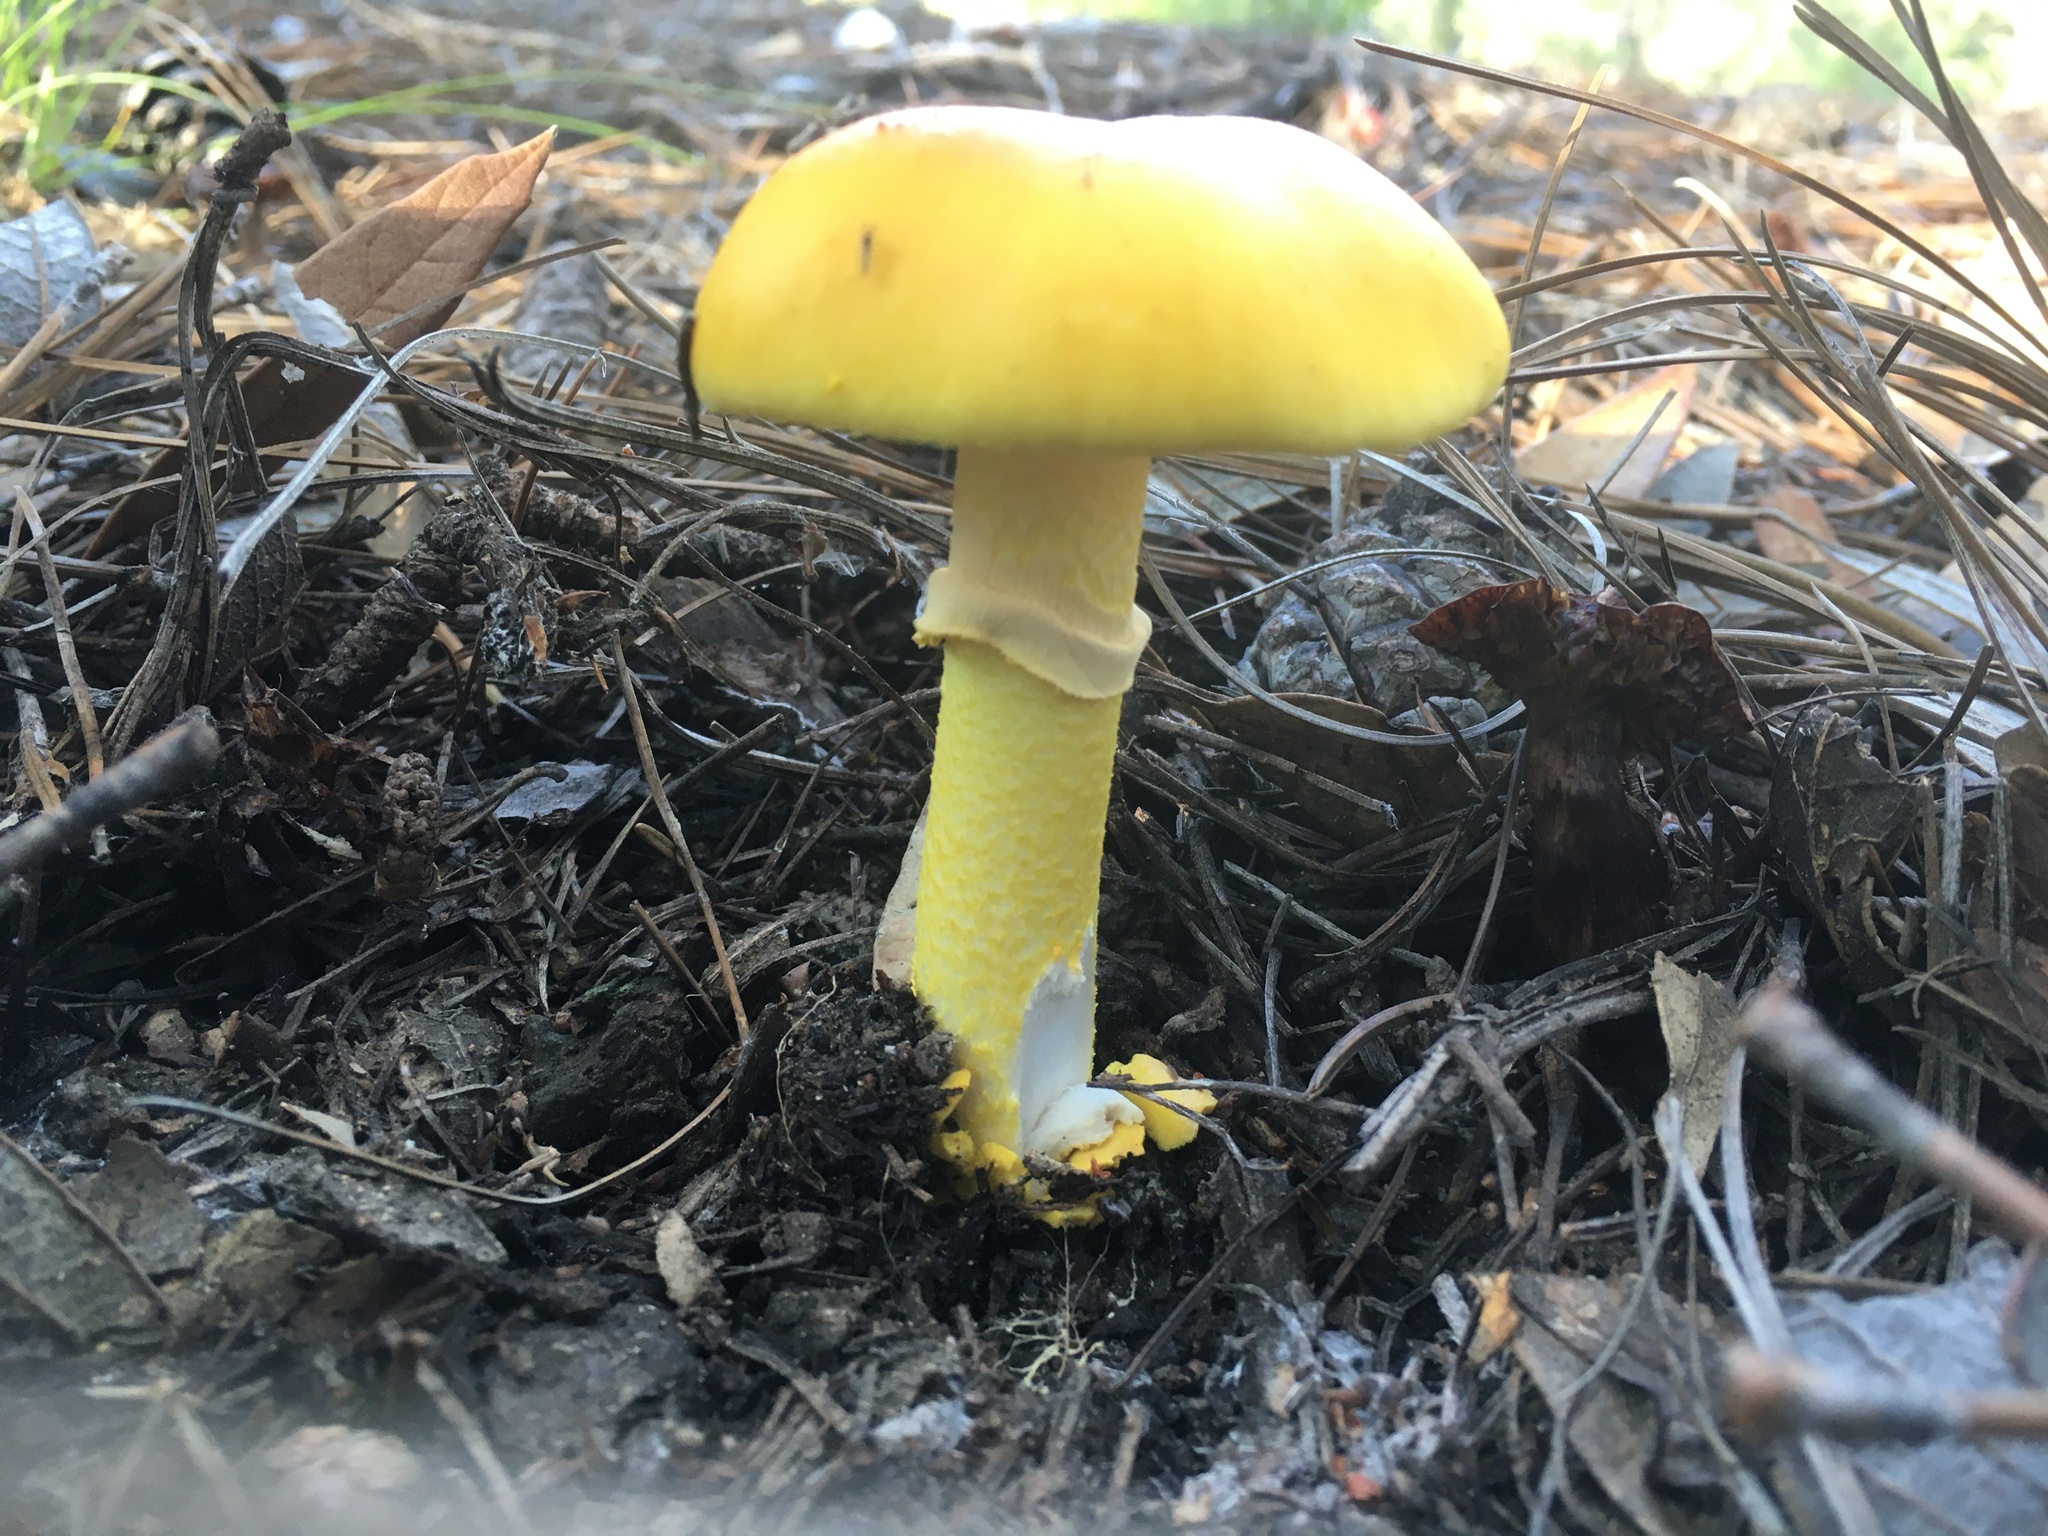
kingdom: Fungi
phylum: Basidiomycota
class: Agaricomycetes
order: Agaricales
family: Amanitaceae
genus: Amanita
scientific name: Amanita flavoconia
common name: Yellow patches
